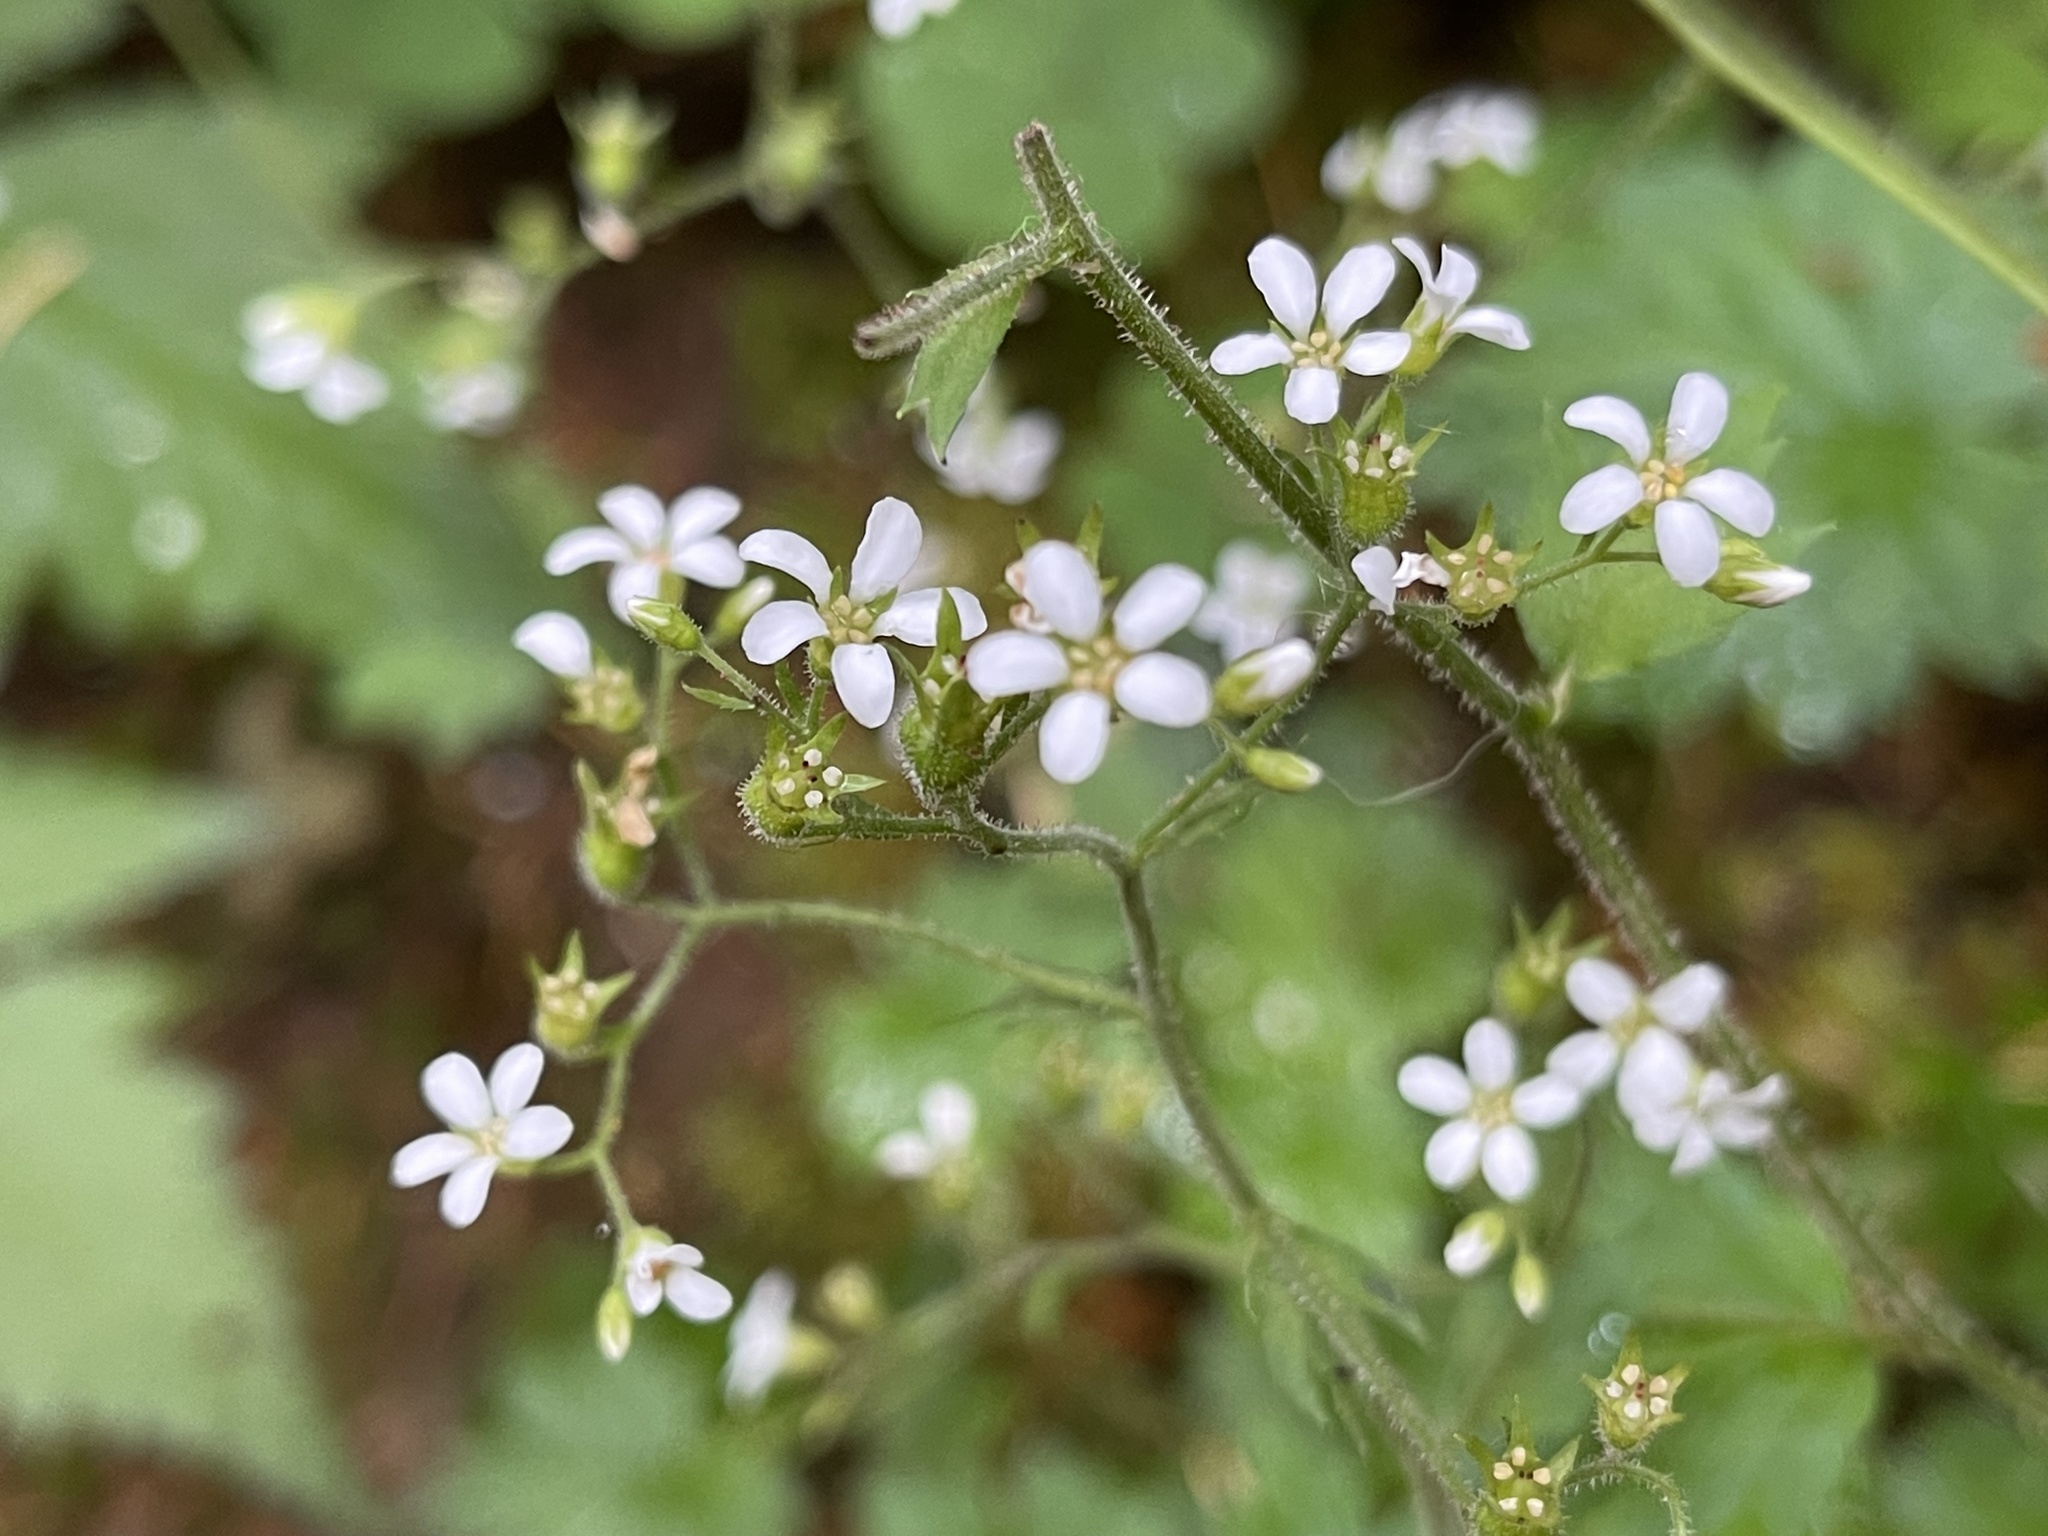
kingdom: Plantae
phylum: Tracheophyta
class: Magnoliopsida
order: Saxifragales
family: Saxifragaceae
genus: Boykinia
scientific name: Boykinia occidentalis
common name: Coast boykinia
